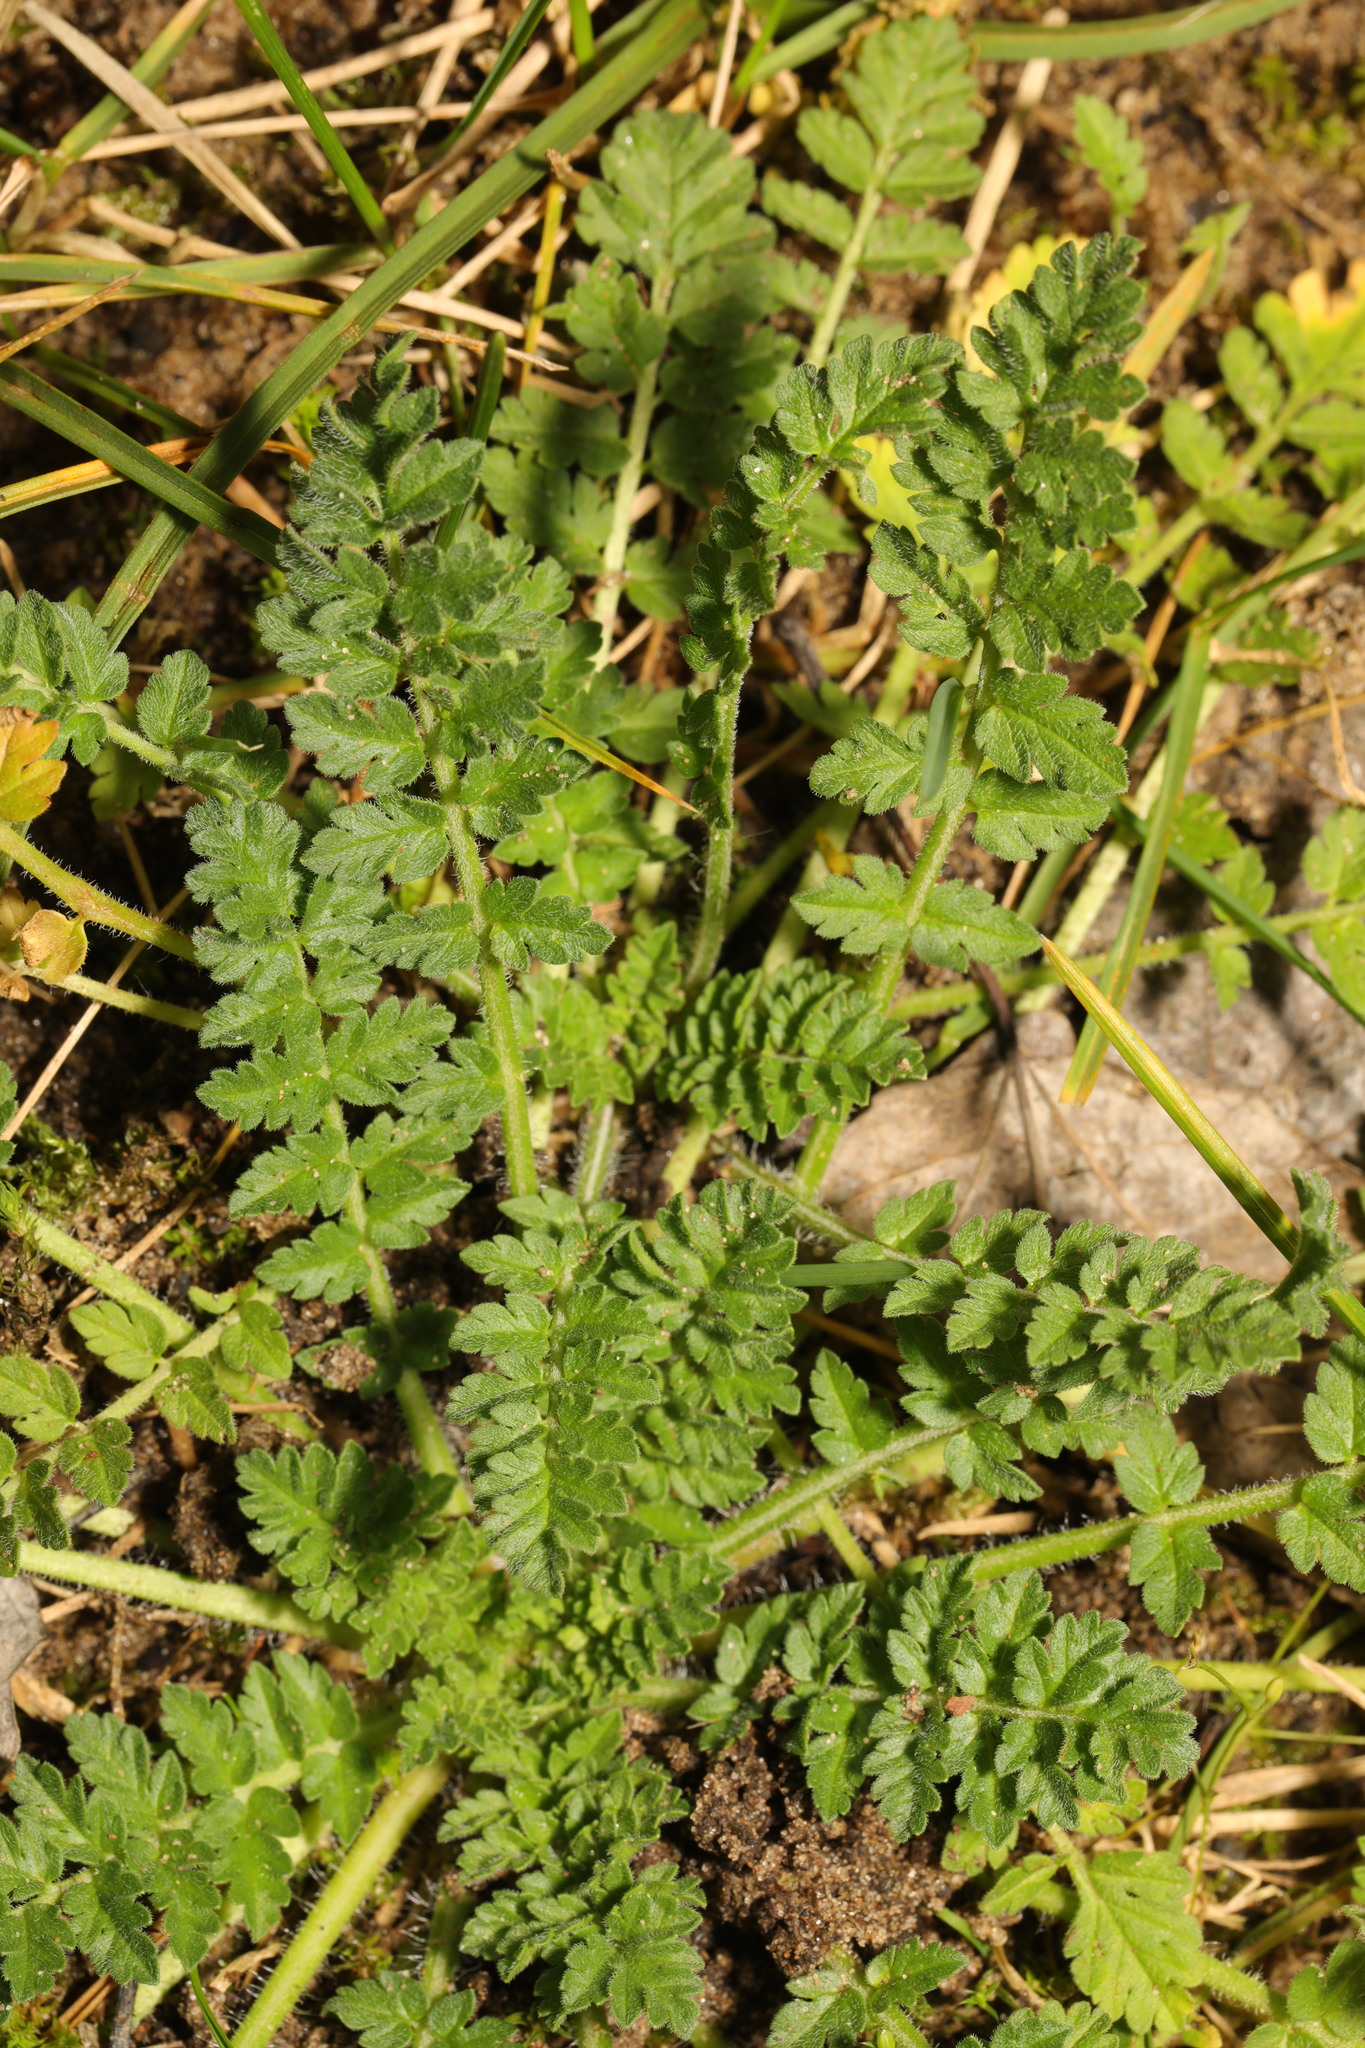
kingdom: Plantae
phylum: Tracheophyta
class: Magnoliopsida
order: Geraniales
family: Geraniaceae
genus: Erodium
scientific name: Erodium cicutarium
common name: Common stork's-bill
